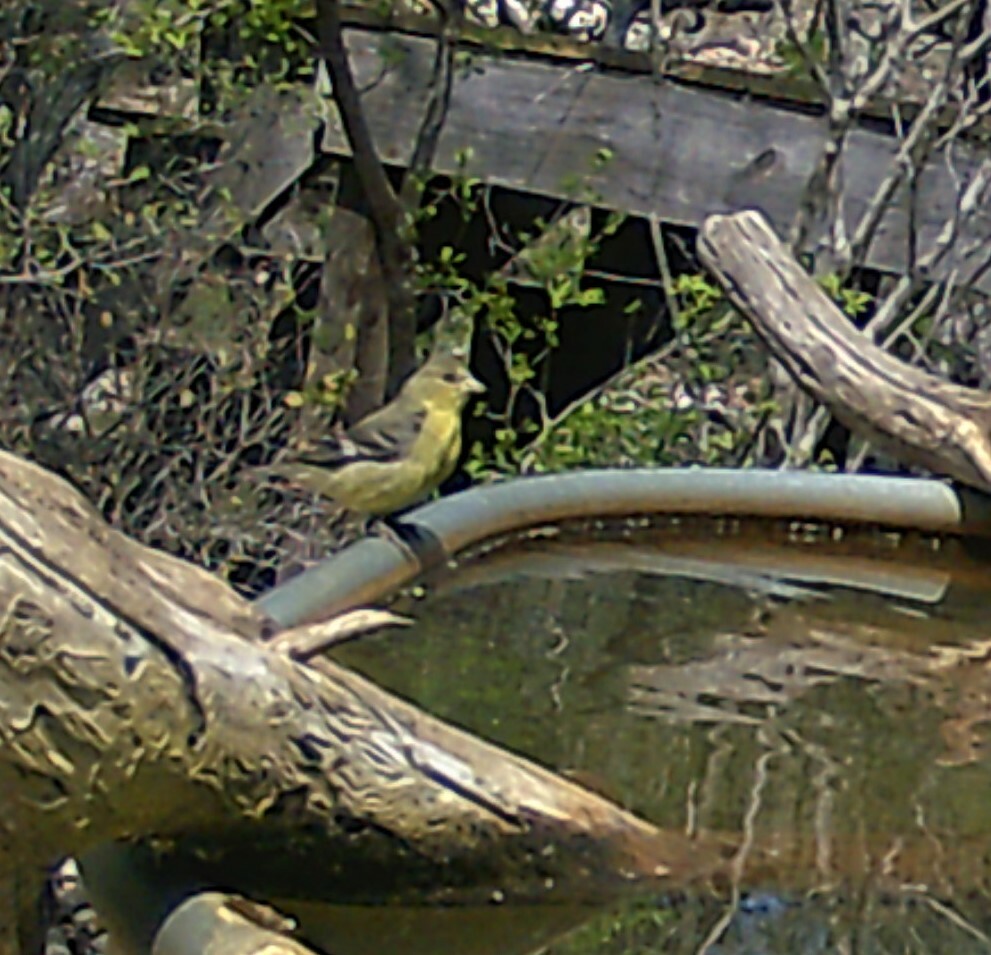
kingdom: Animalia
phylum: Chordata
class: Aves
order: Passeriformes
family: Fringillidae
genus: Spinus
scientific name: Spinus psaltria
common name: Lesser goldfinch
